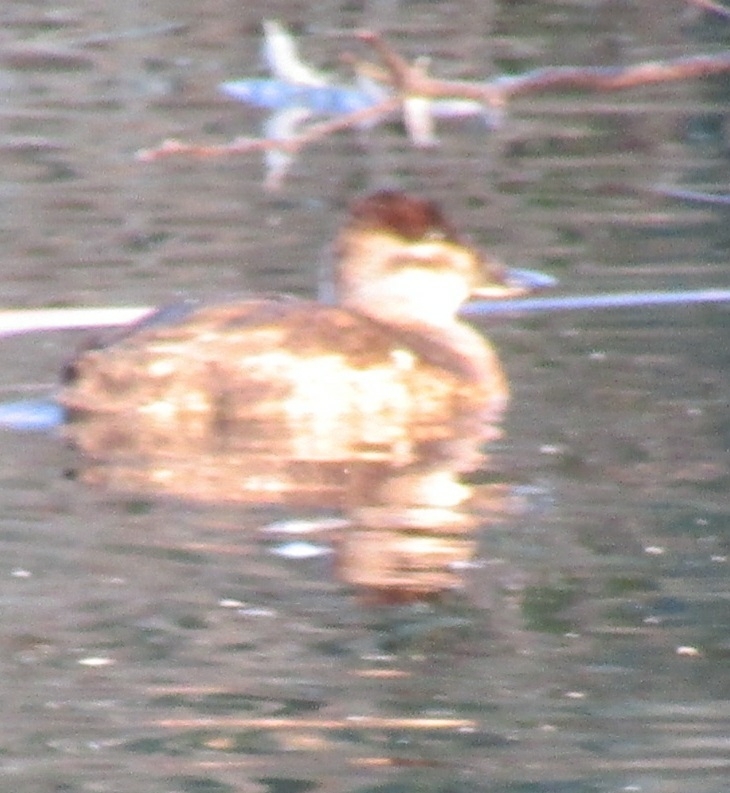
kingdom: Animalia
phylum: Chordata
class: Aves
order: Anseriformes
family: Anatidae
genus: Oxyura
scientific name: Oxyura jamaicensis
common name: Ruddy duck
